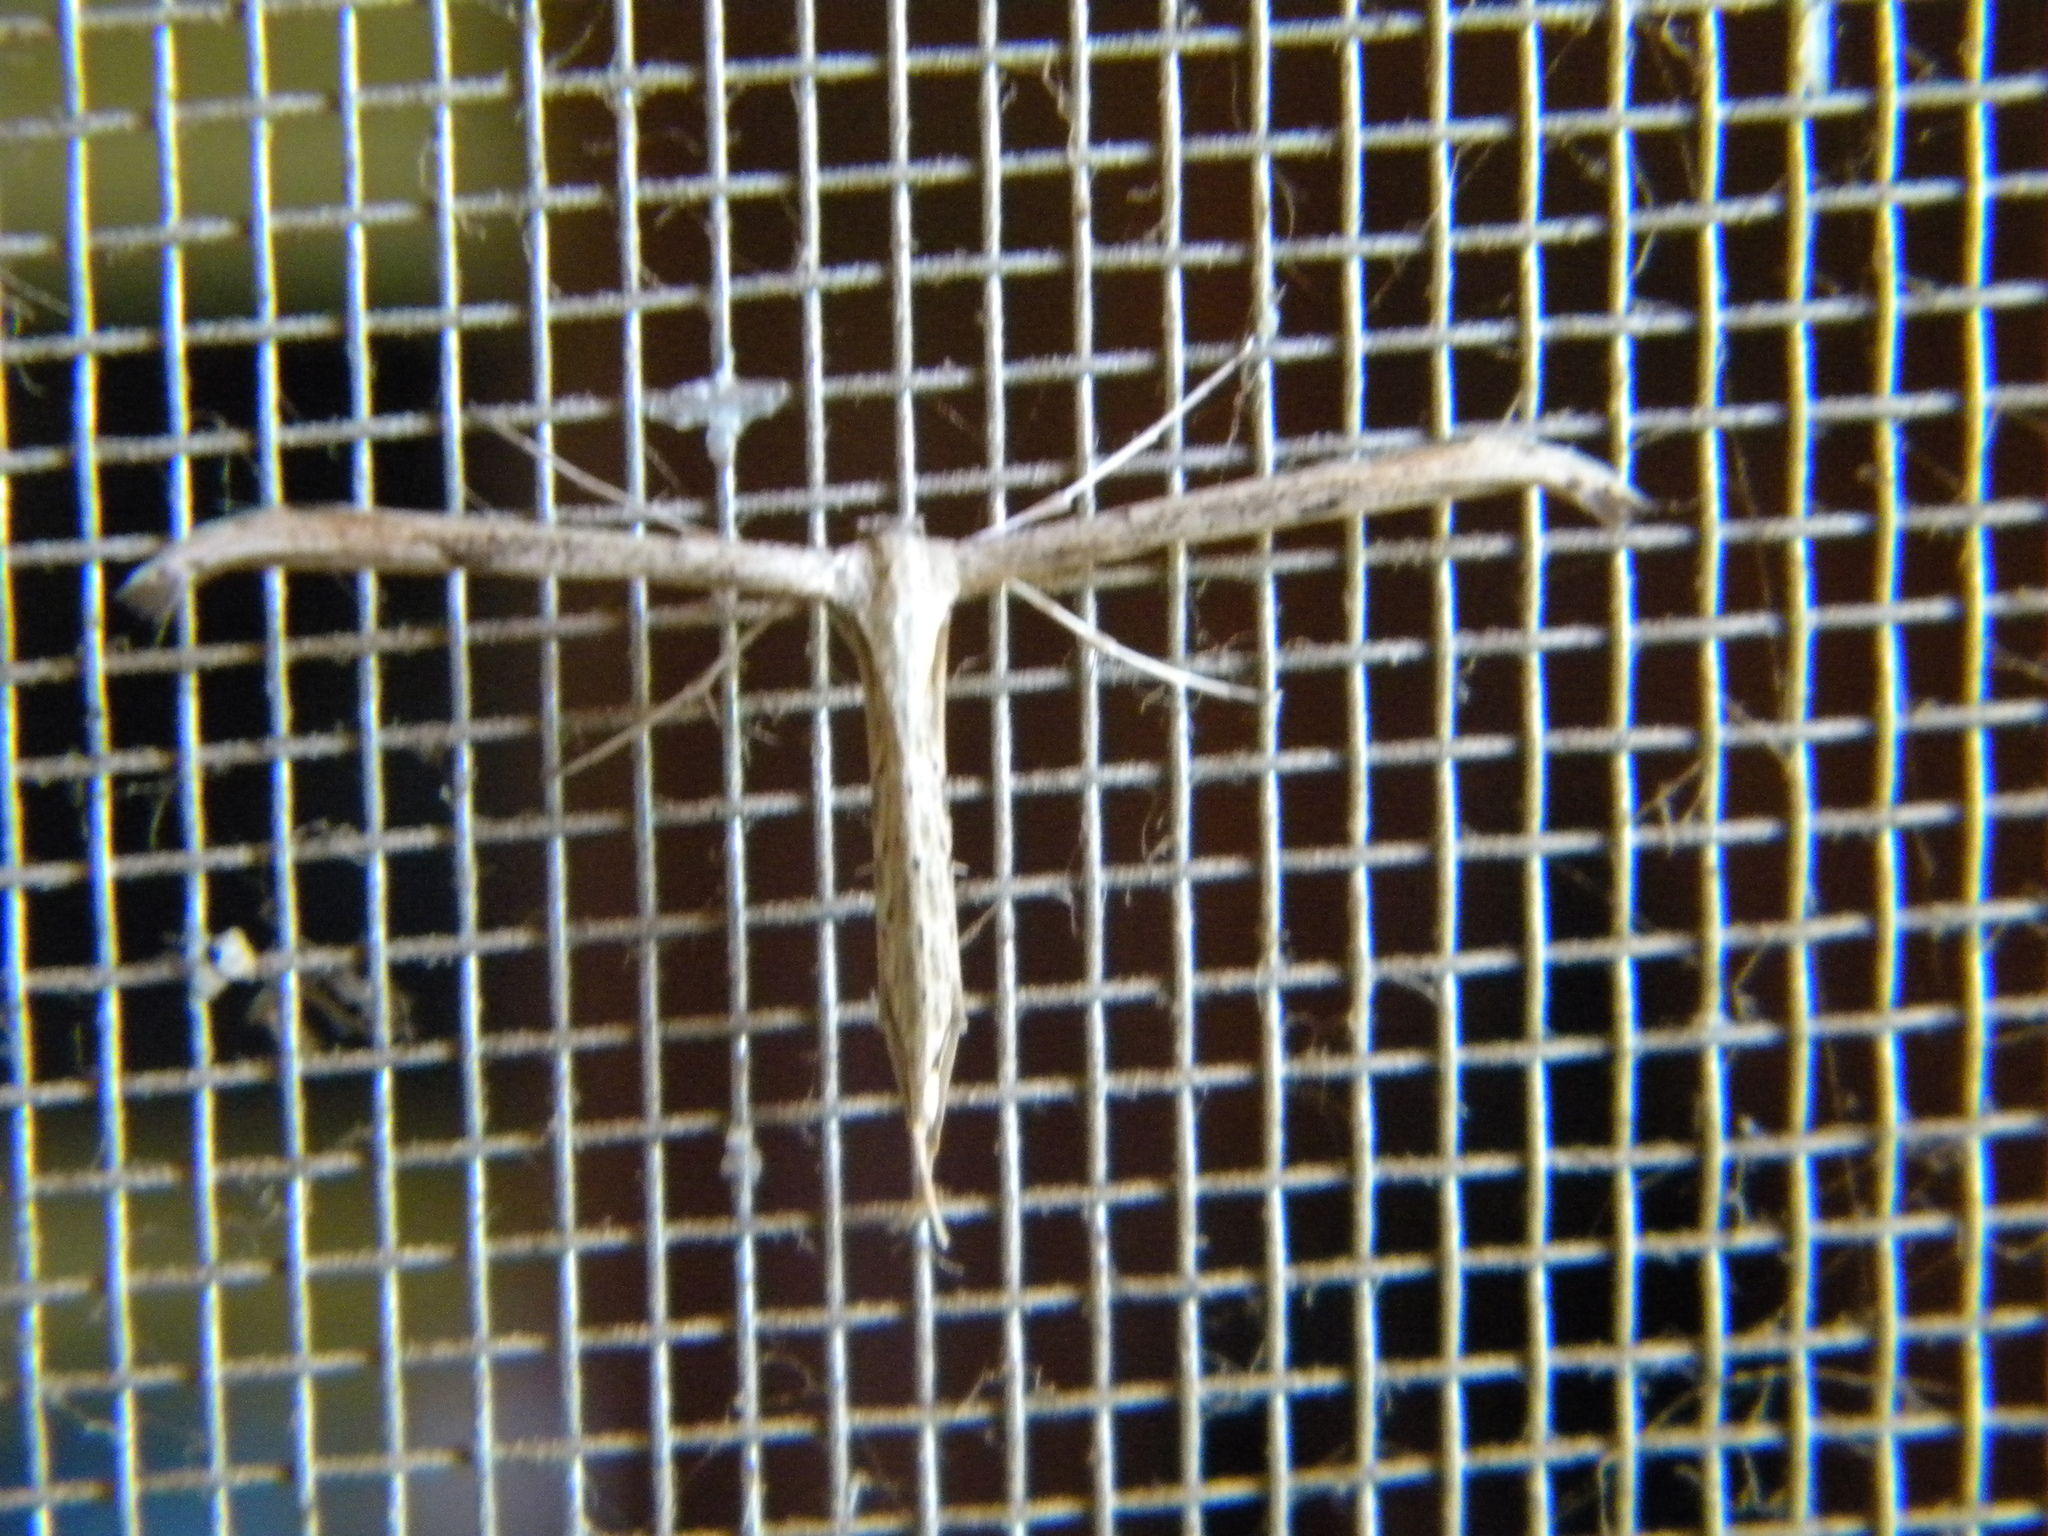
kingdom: Animalia
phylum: Arthropoda
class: Insecta
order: Lepidoptera
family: Pterophoridae
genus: Emmelina
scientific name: Emmelina monodactyla
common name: Common plume
